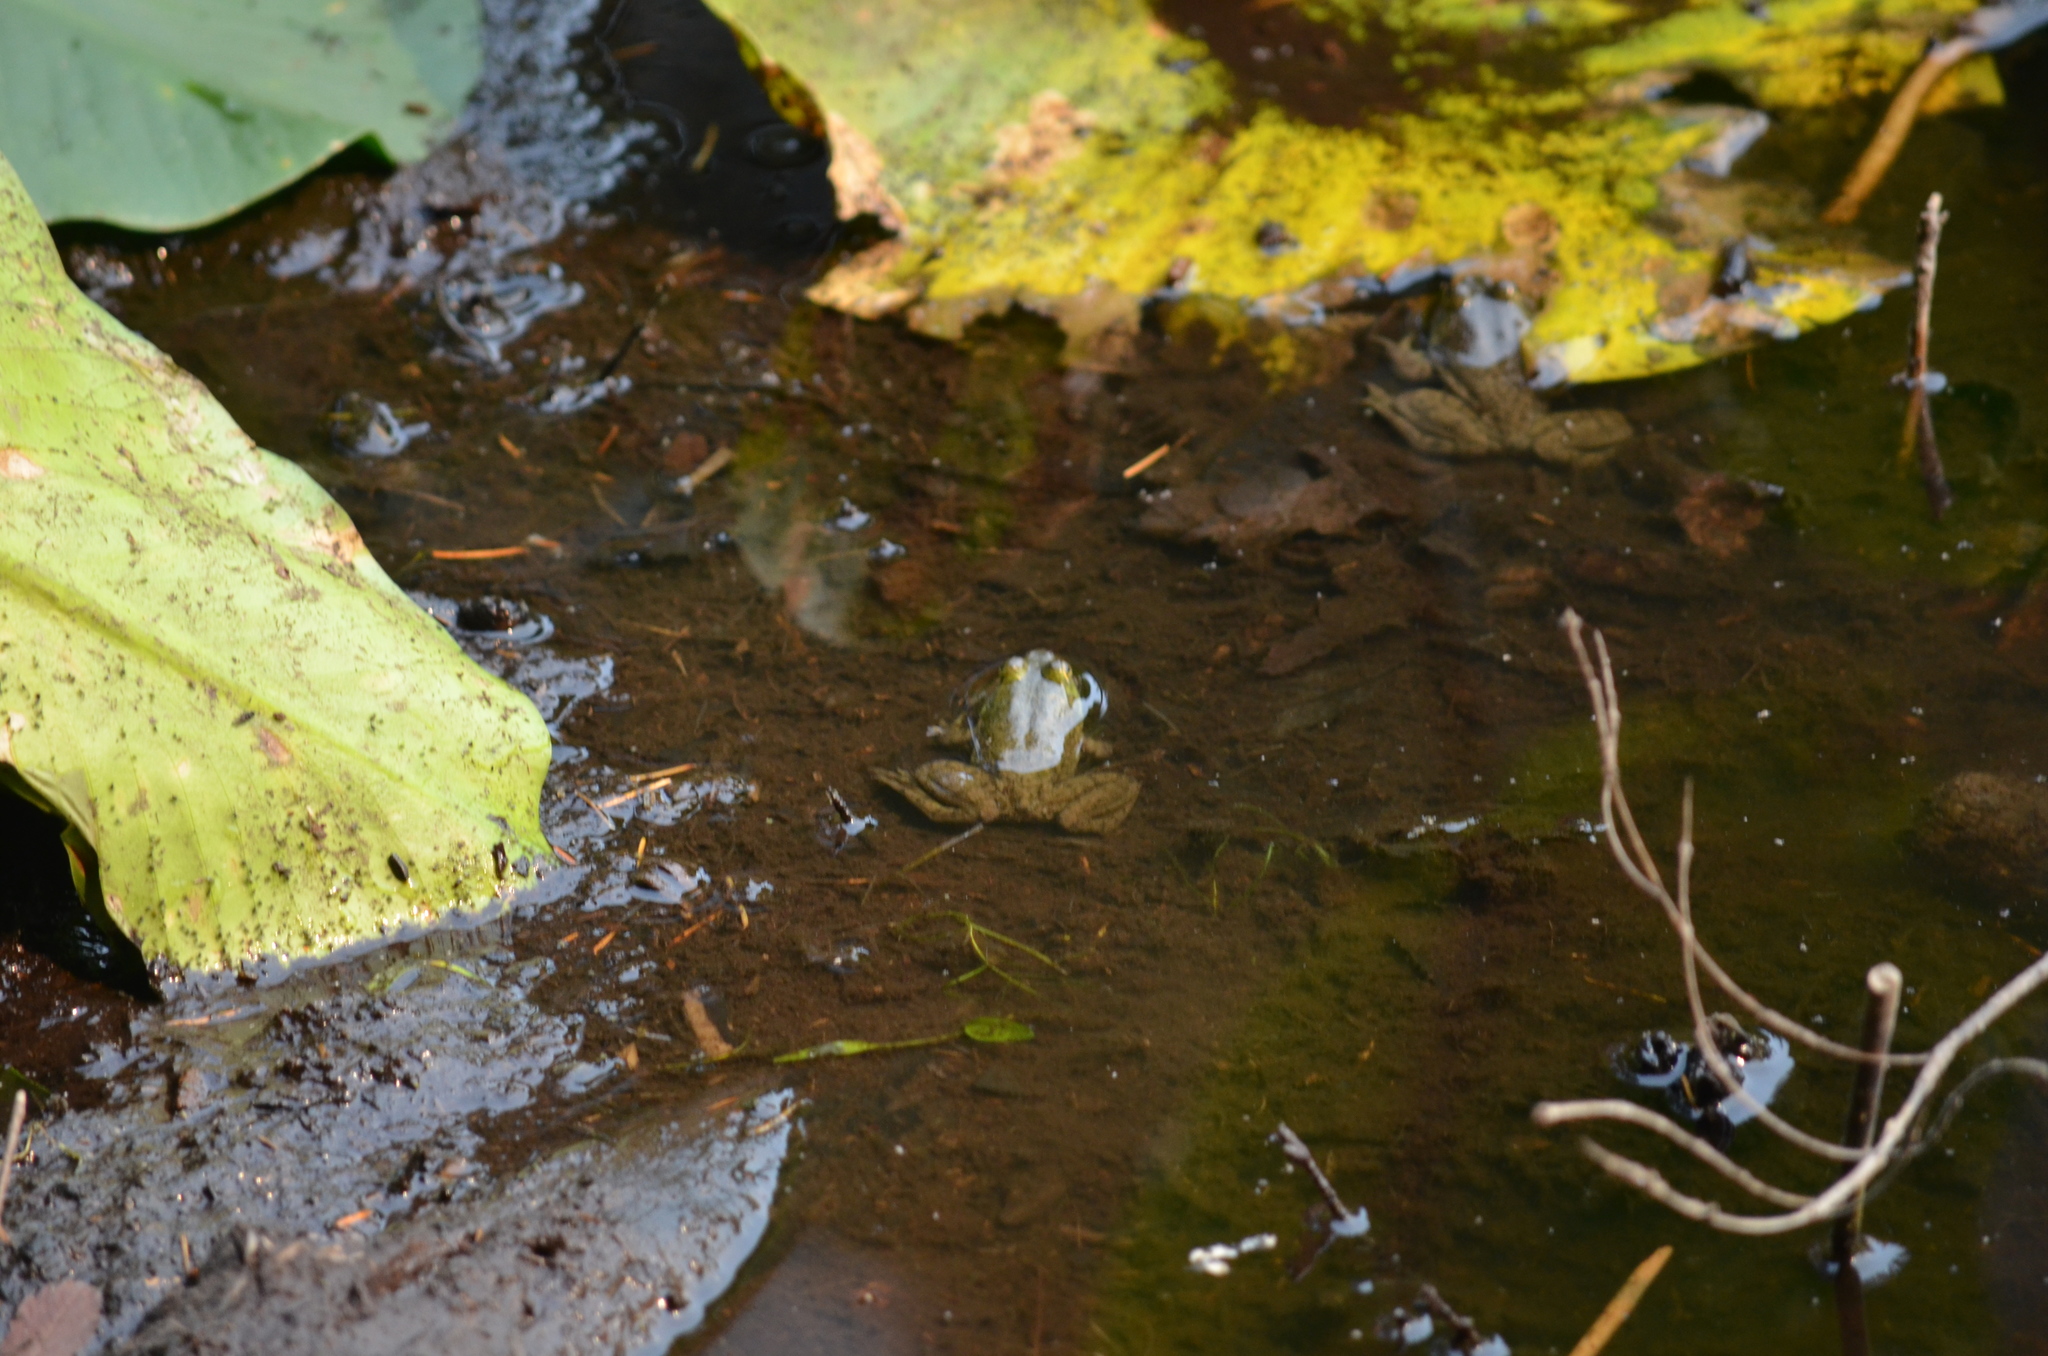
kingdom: Animalia
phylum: Chordata
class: Amphibia
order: Anura
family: Ranidae
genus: Lithobates
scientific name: Lithobates catesbeianus
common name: American bullfrog
